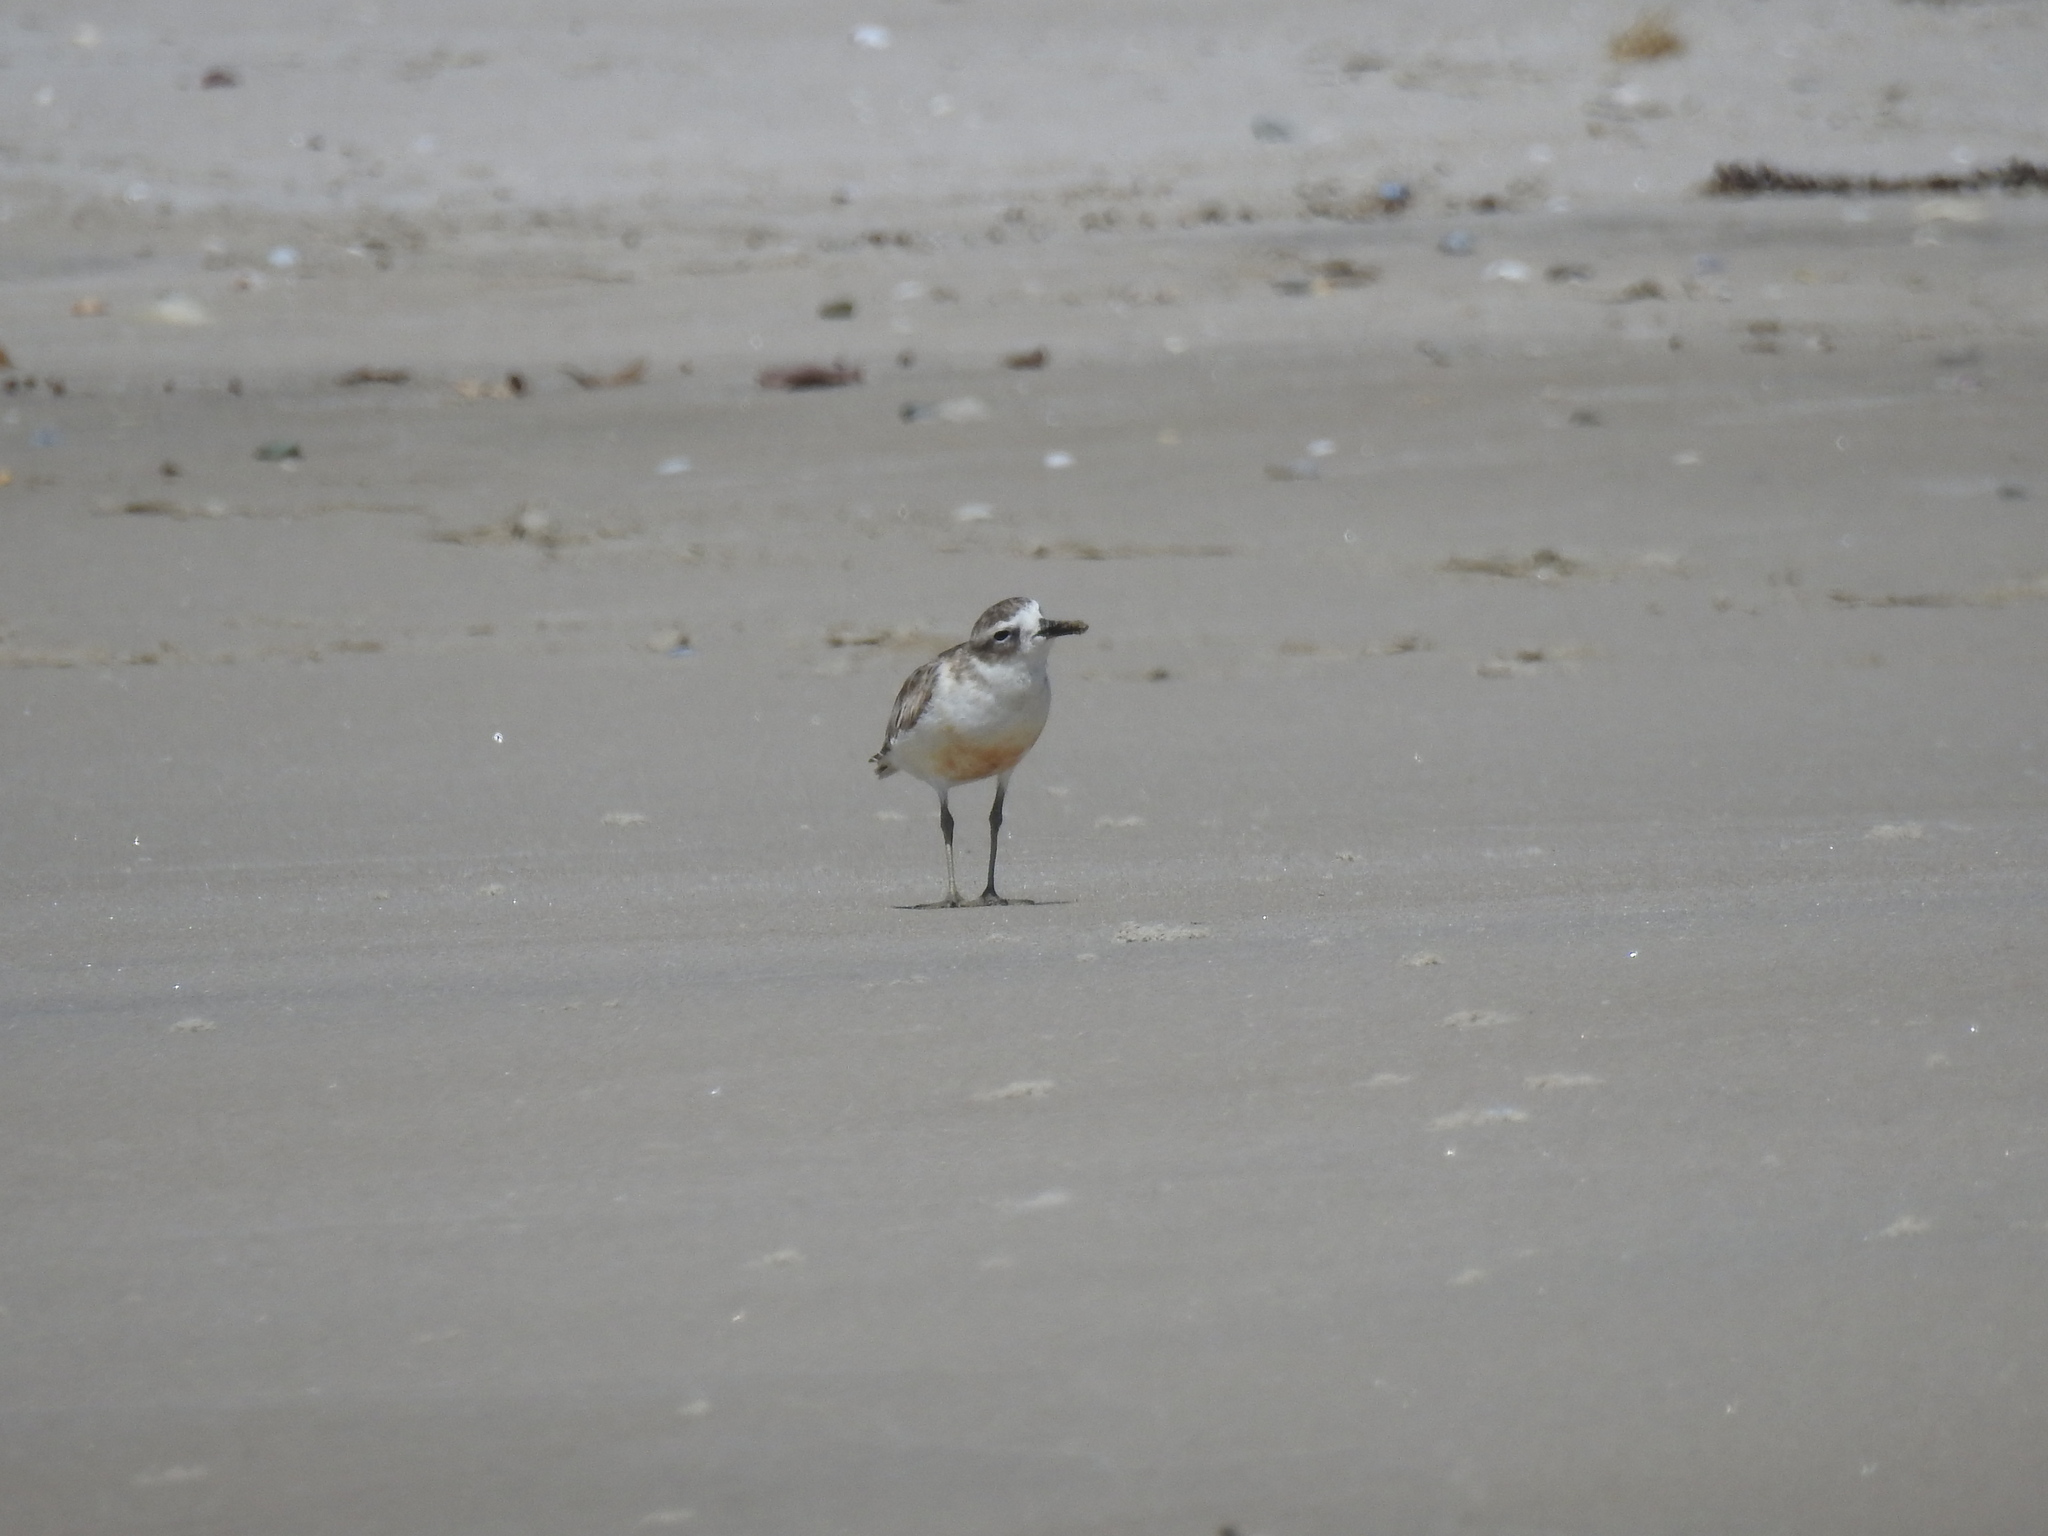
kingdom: Animalia
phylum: Chordata
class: Aves
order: Charadriiformes
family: Charadriidae
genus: Anarhynchus
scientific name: Anarhynchus
